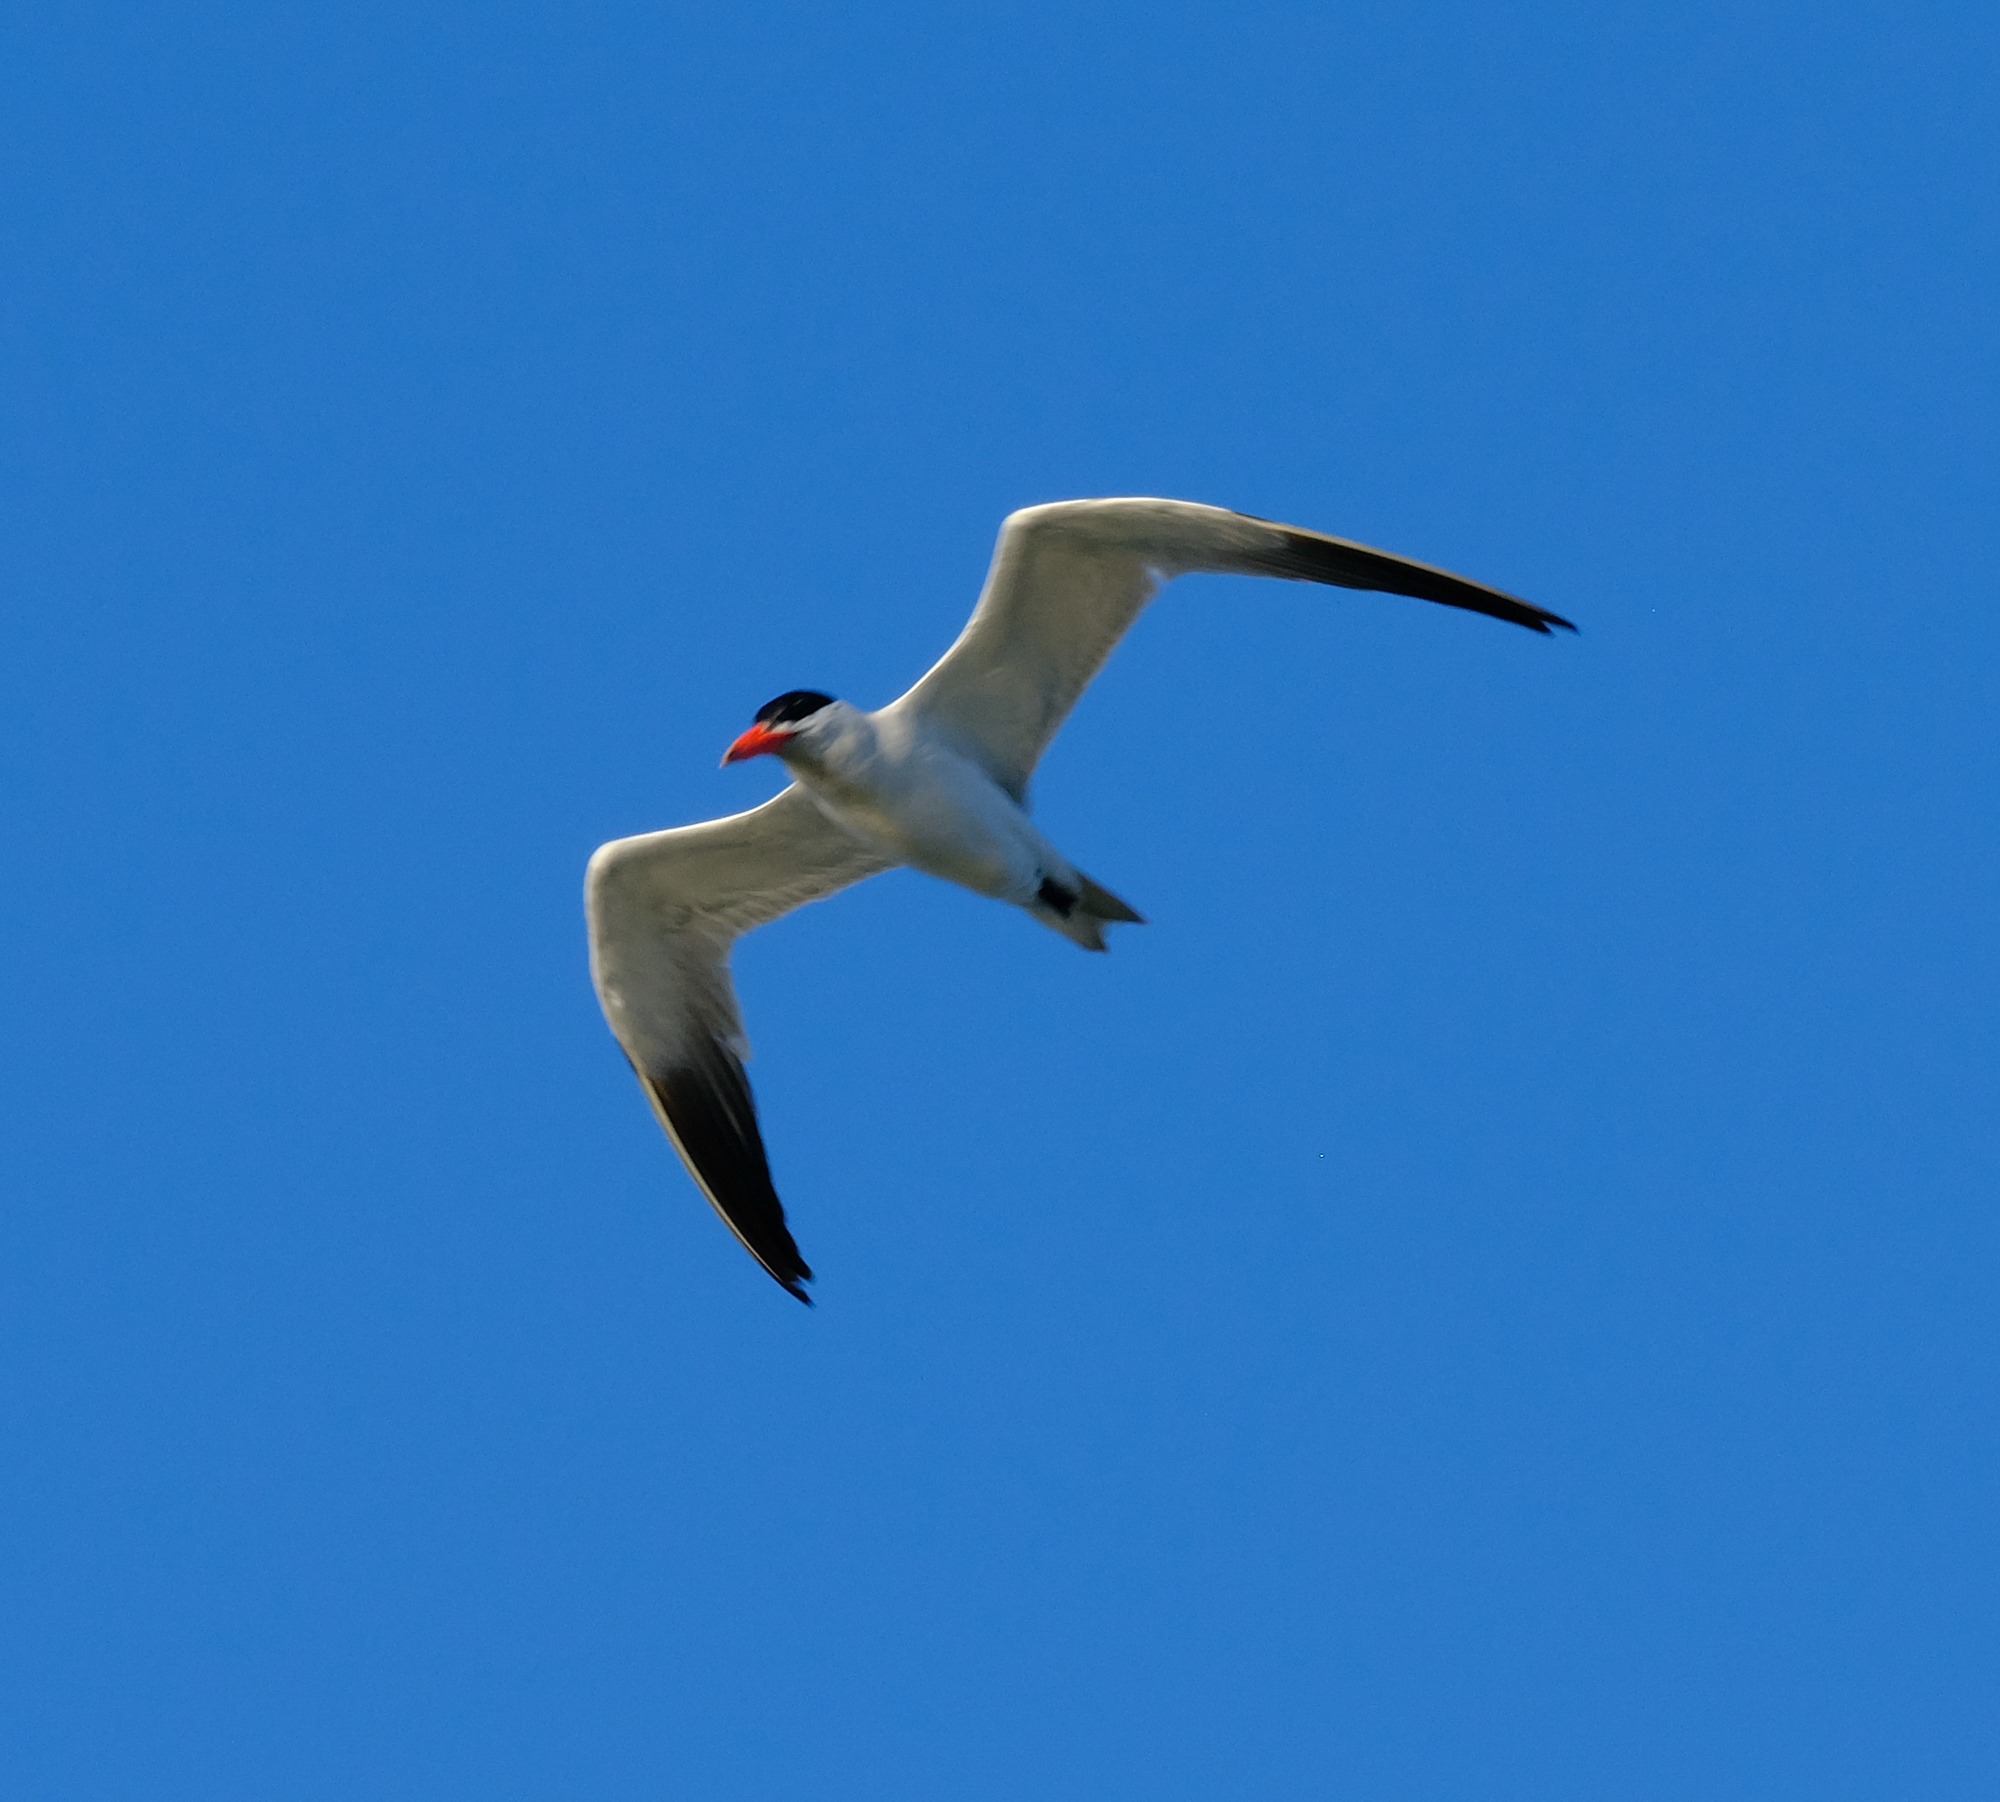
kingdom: Animalia
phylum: Chordata
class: Aves
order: Charadriiformes
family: Laridae
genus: Hydroprogne
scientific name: Hydroprogne caspia
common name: Caspian tern
